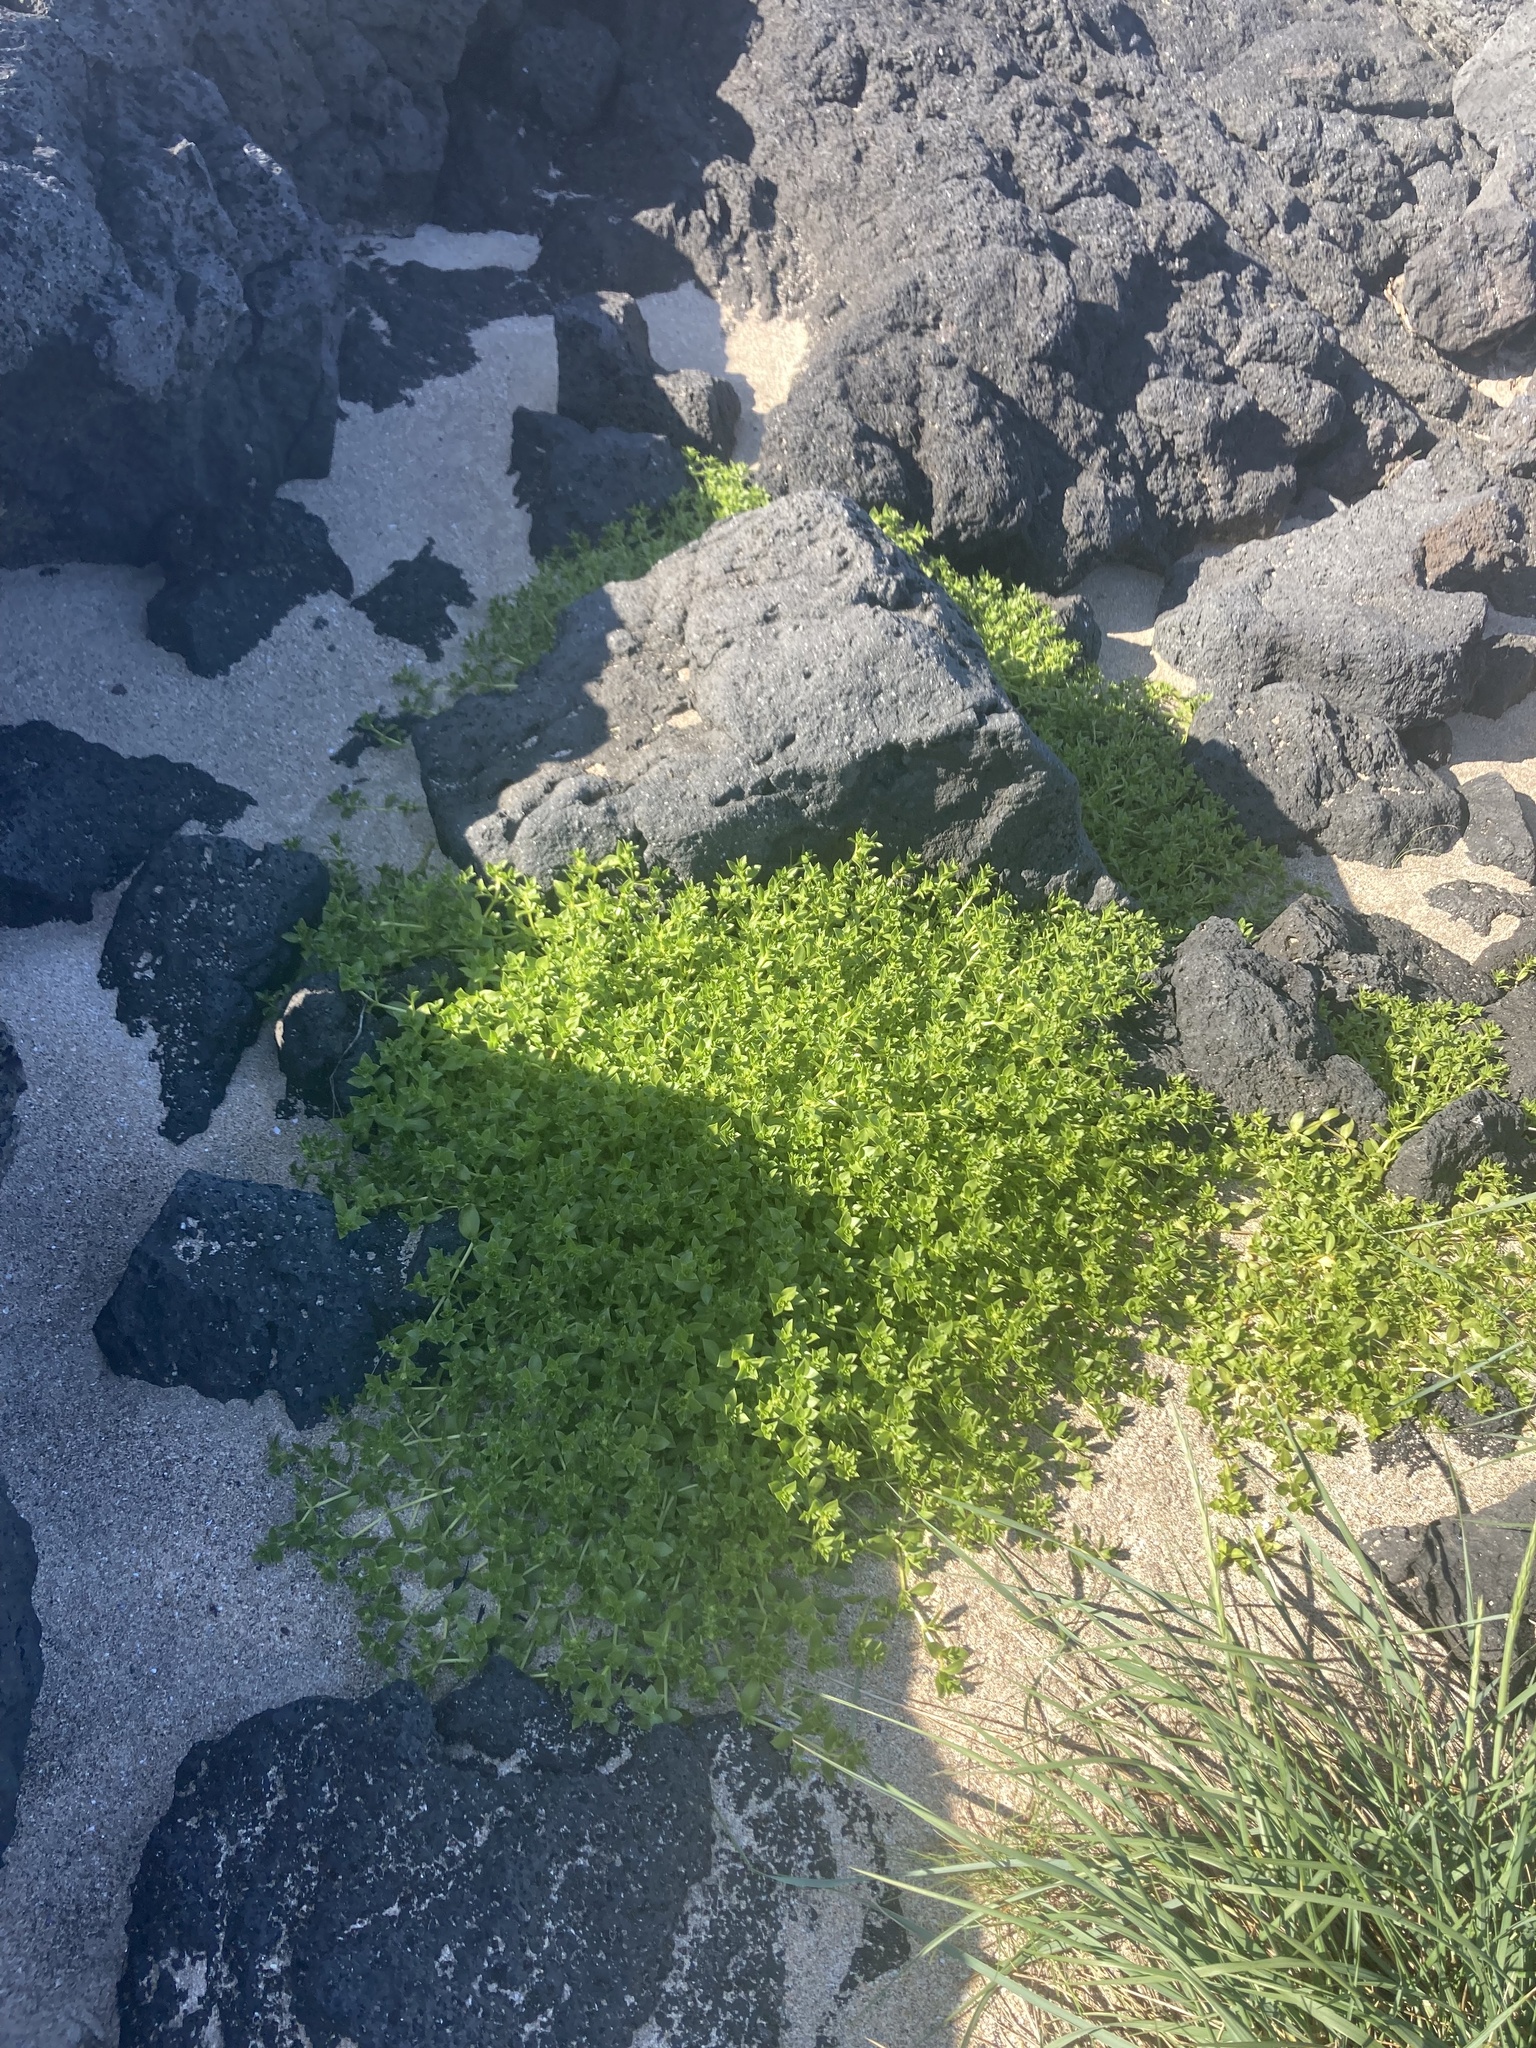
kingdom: Plantae
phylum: Tracheophyta
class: Magnoliopsida
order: Caryophyllales
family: Caryophyllaceae
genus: Honckenya
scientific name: Honckenya peploides
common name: Sea sandwort
